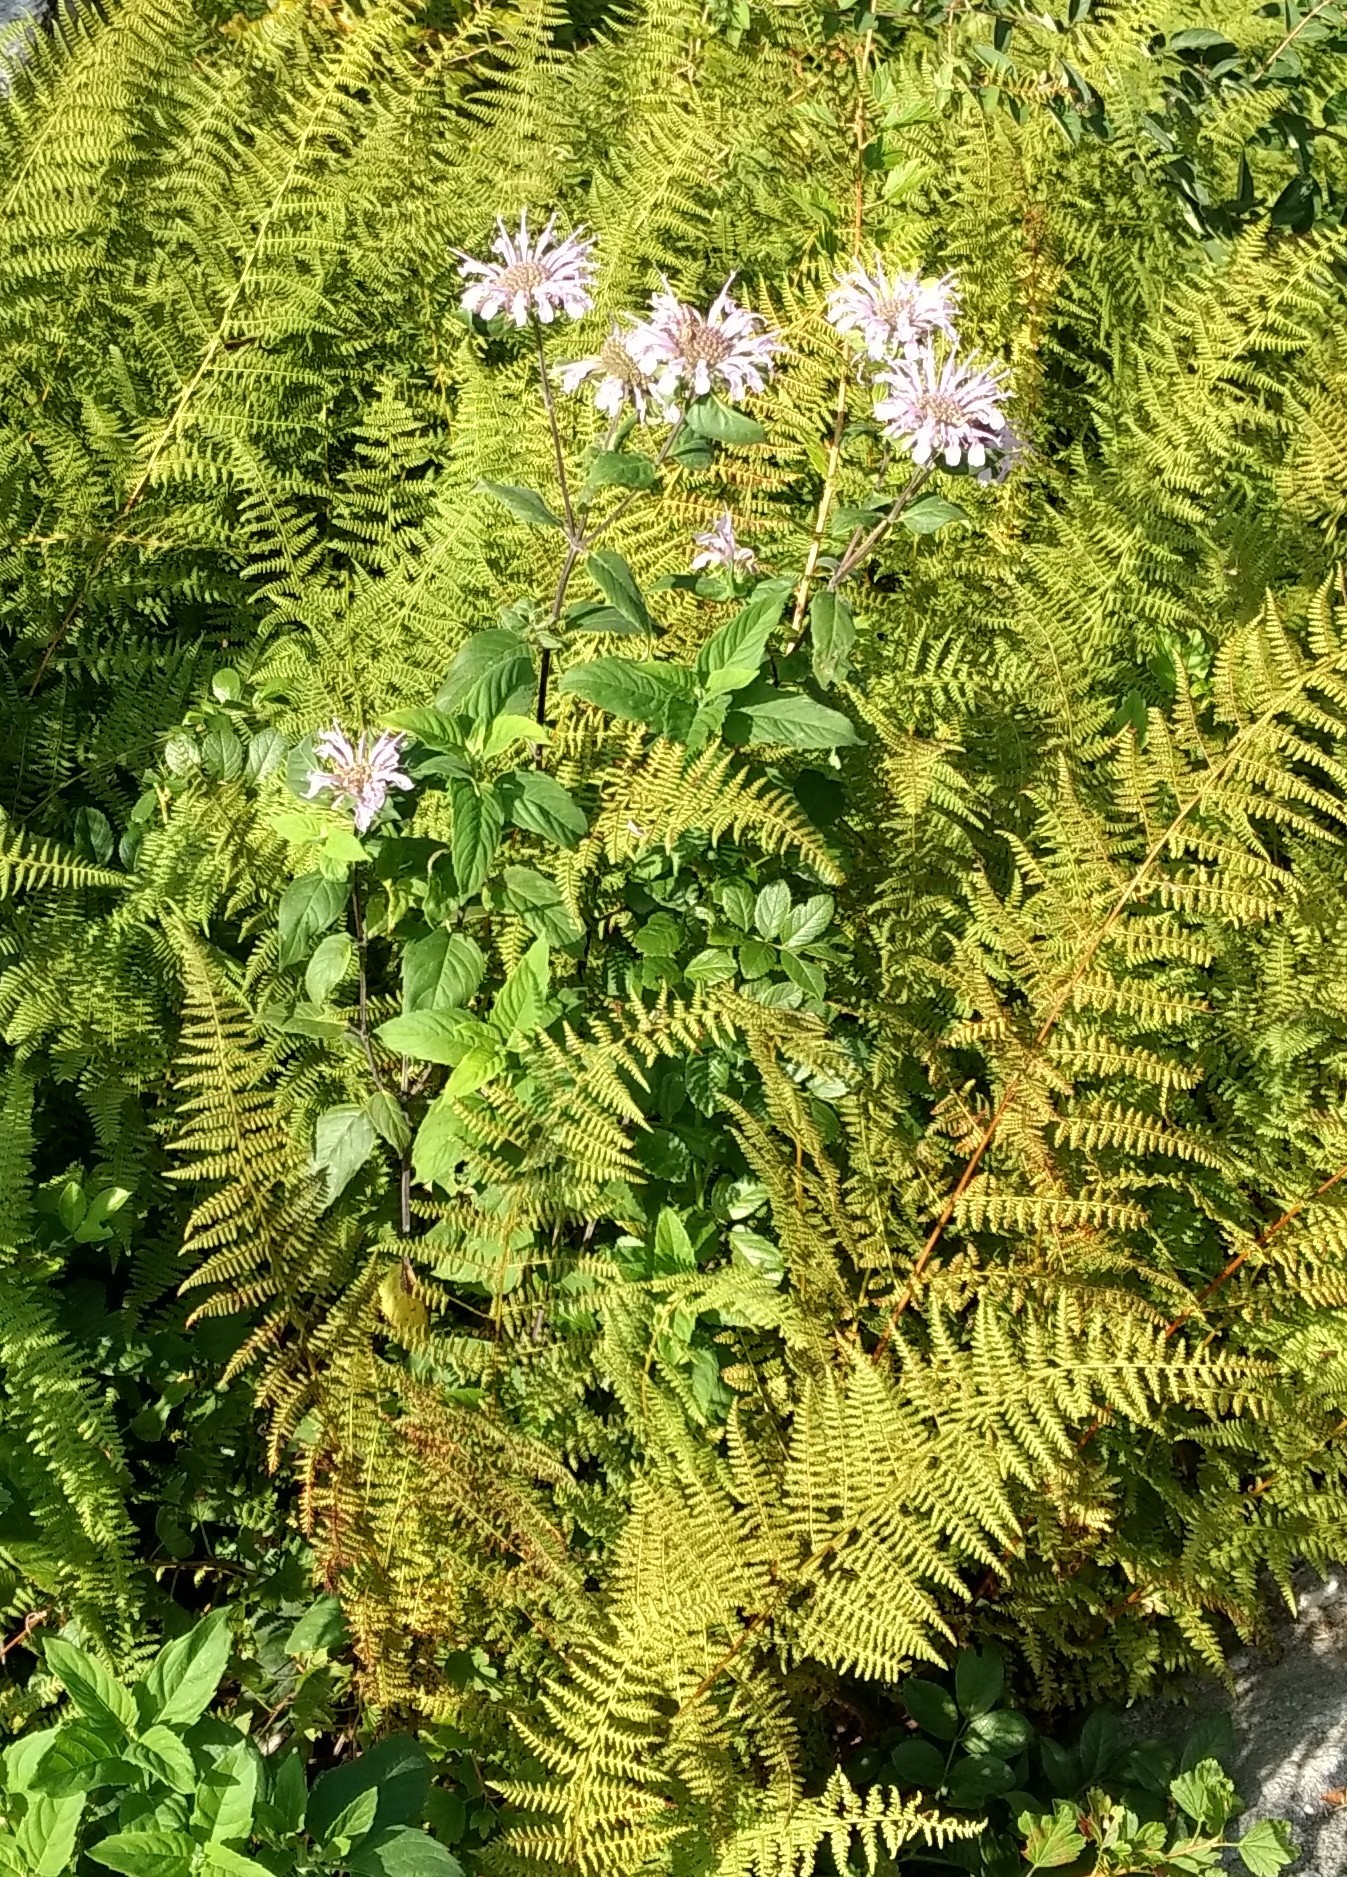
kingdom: Plantae
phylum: Tracheophyta
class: Magnoliopsida
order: Lamiales
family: Lamiaceae
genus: Monarda
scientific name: Monarda fistulosa
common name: Purple beebalm
